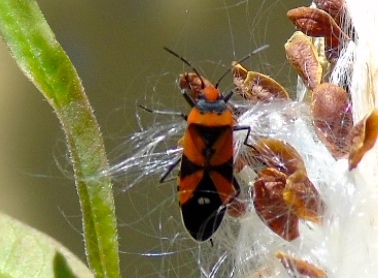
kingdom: Animalia
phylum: Arthropoda
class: Insecta
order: Hemiptera
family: Lygaeidae
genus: Lygaeus
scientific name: Lygaeus analis
